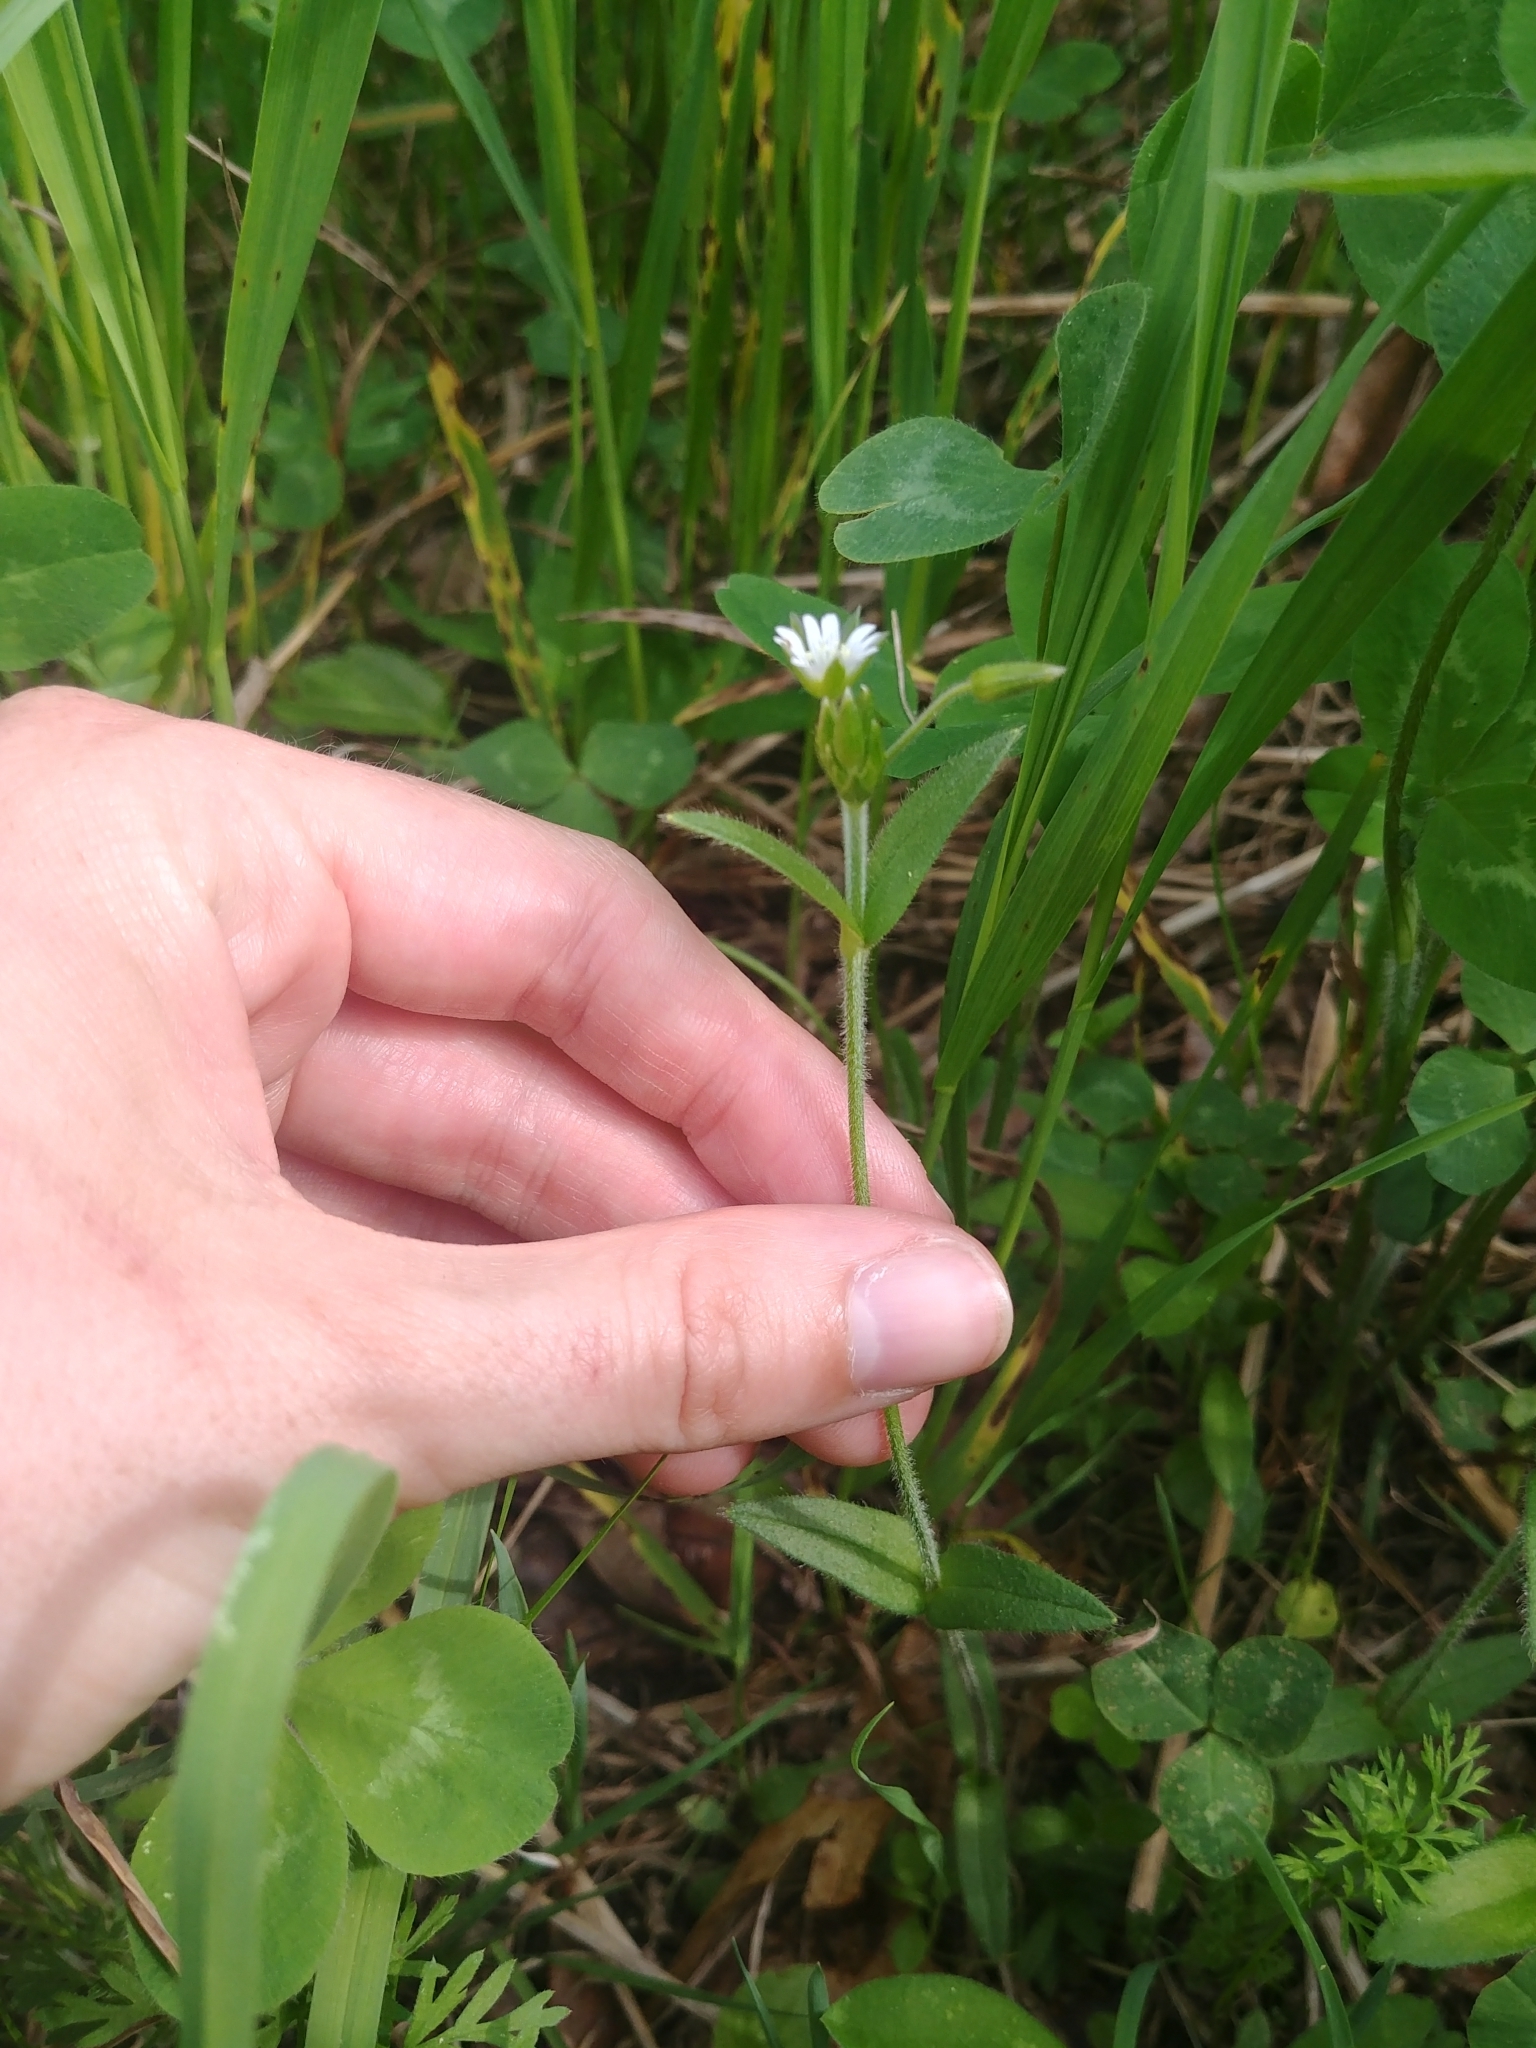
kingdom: Plantae
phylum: Tracheophyta
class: Magnoliopsida
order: Caryophyllales
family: Caryophyllaceae
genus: Cerastium
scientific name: Cerastium fontanum
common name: Common mouse-ear
